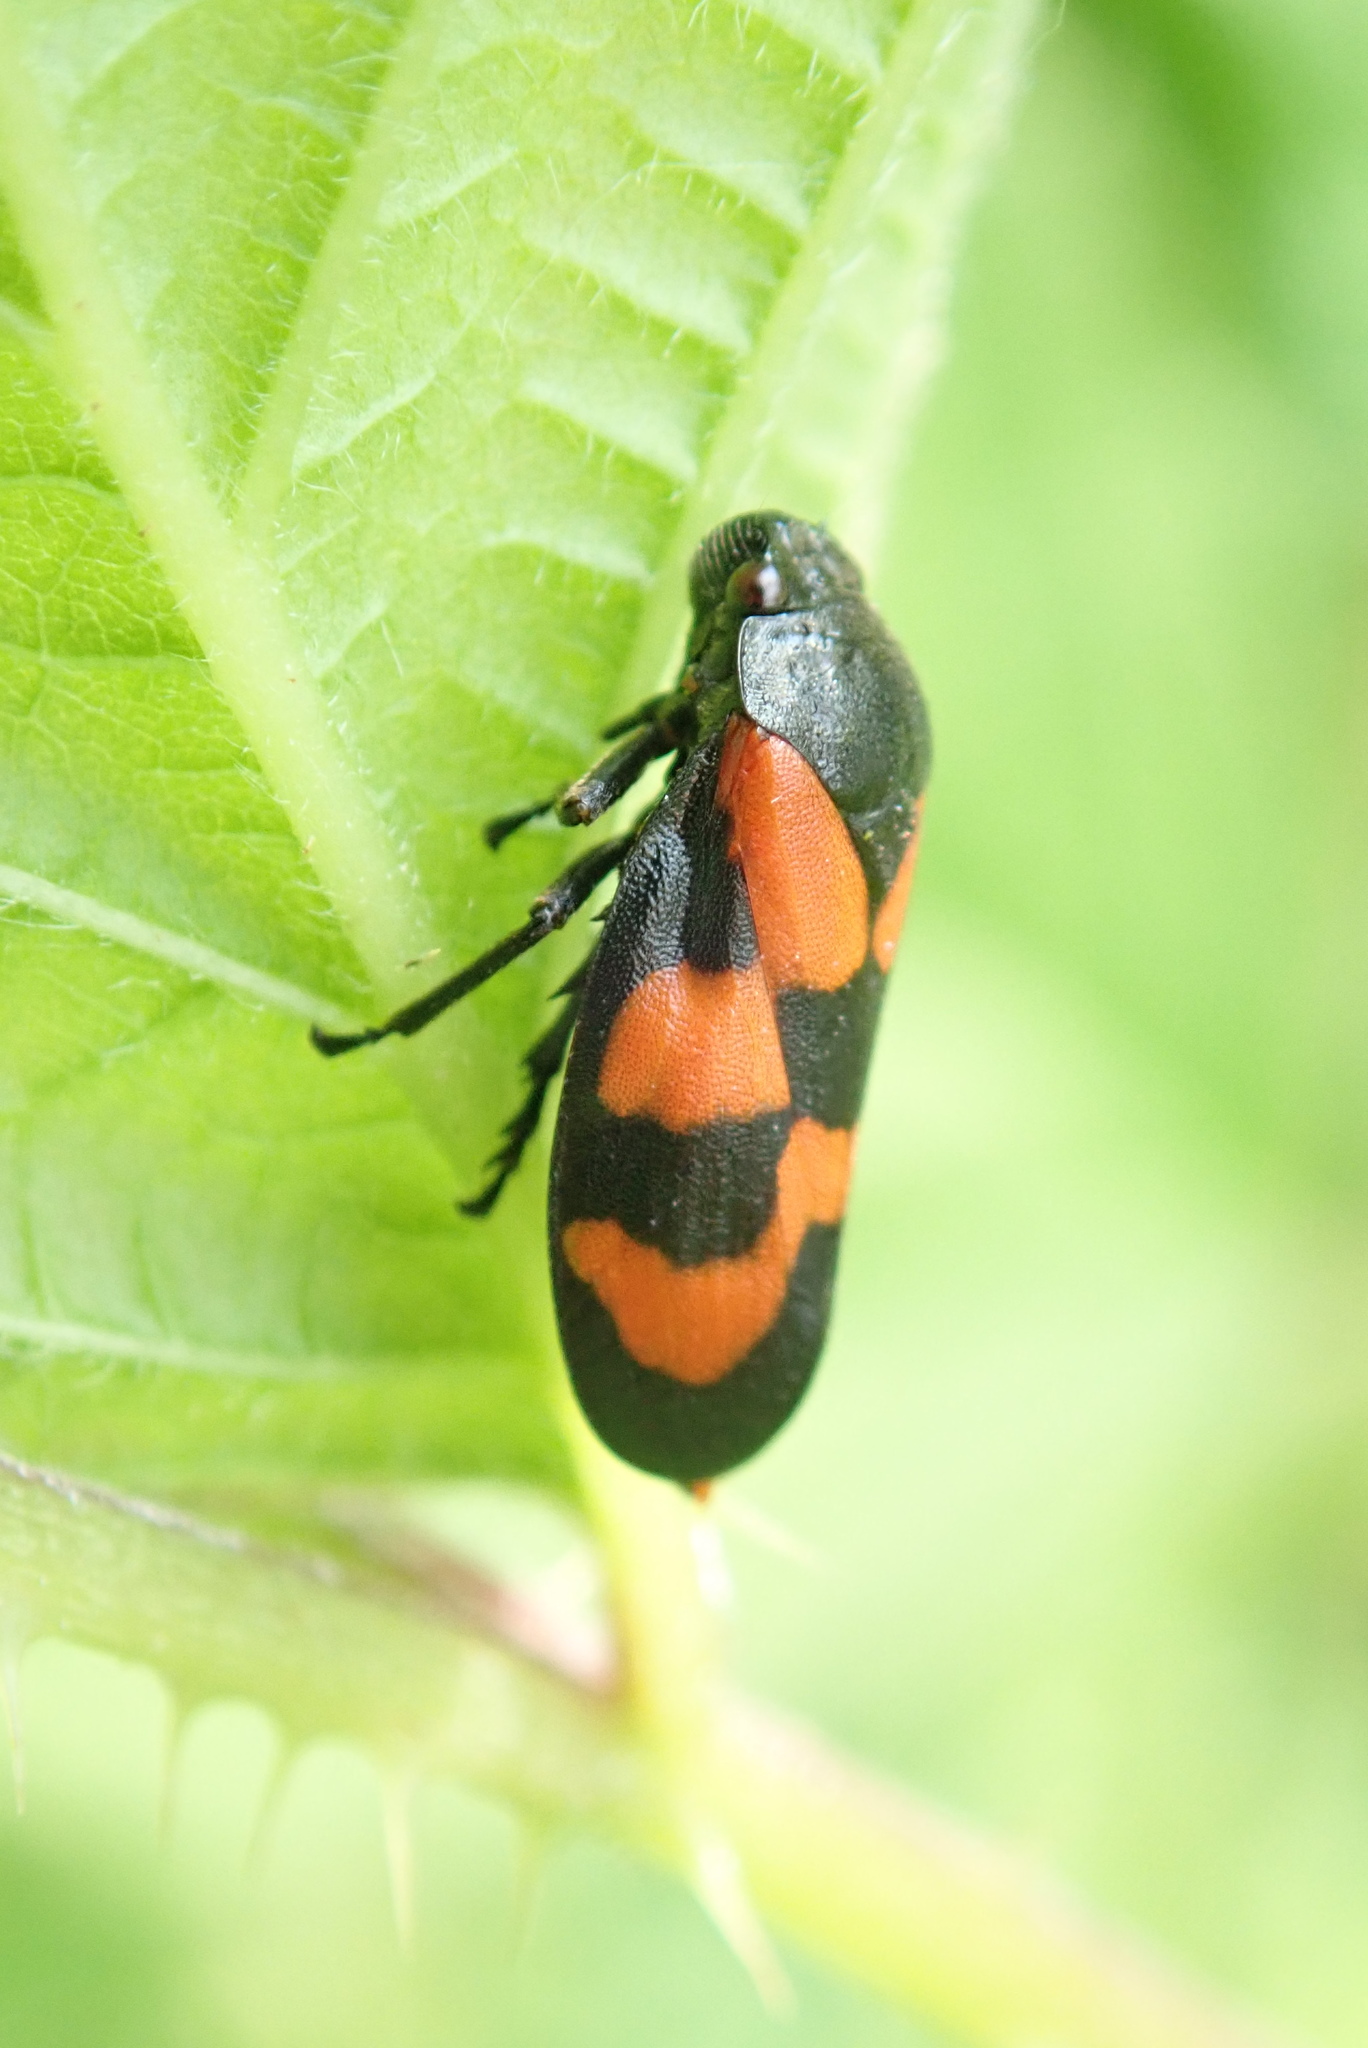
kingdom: Animalia
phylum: Arthropoda
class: Insecta
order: Hemiptera
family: Cercopidae
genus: Cercopis
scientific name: Cercopis vulnerata
